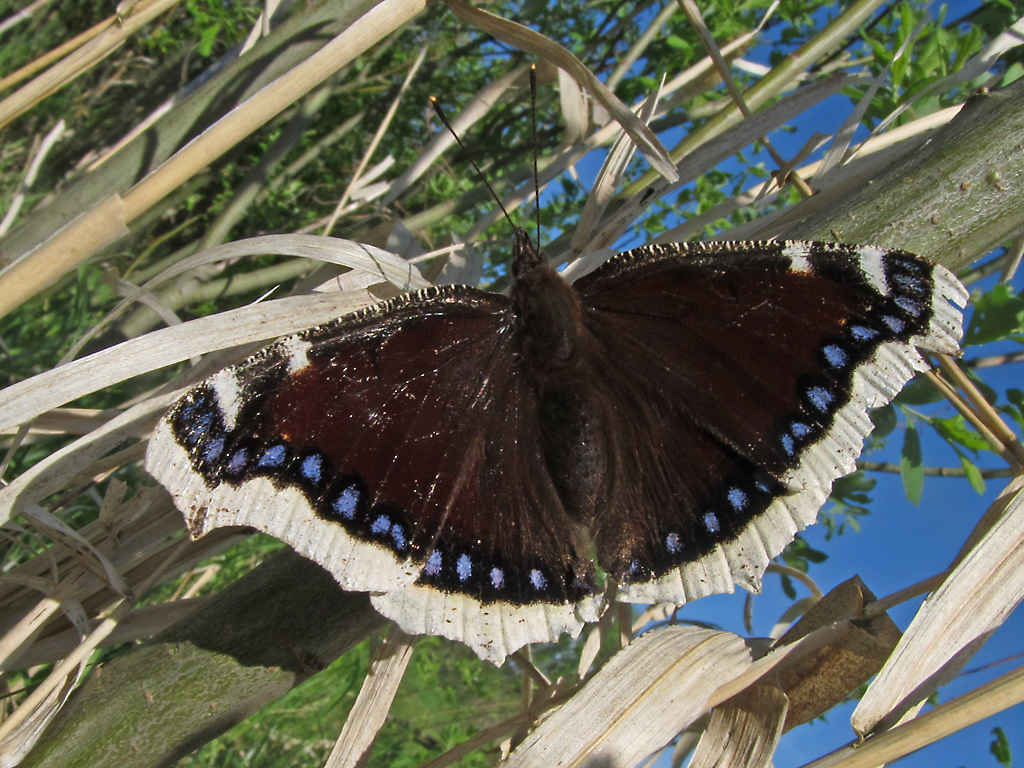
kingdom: Animalia
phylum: Arthropoda
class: Insecta
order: Lepidoptera
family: Nymphalidae
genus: Nymphalis
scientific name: Nymphalis antiopa
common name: Camberwell beauty
